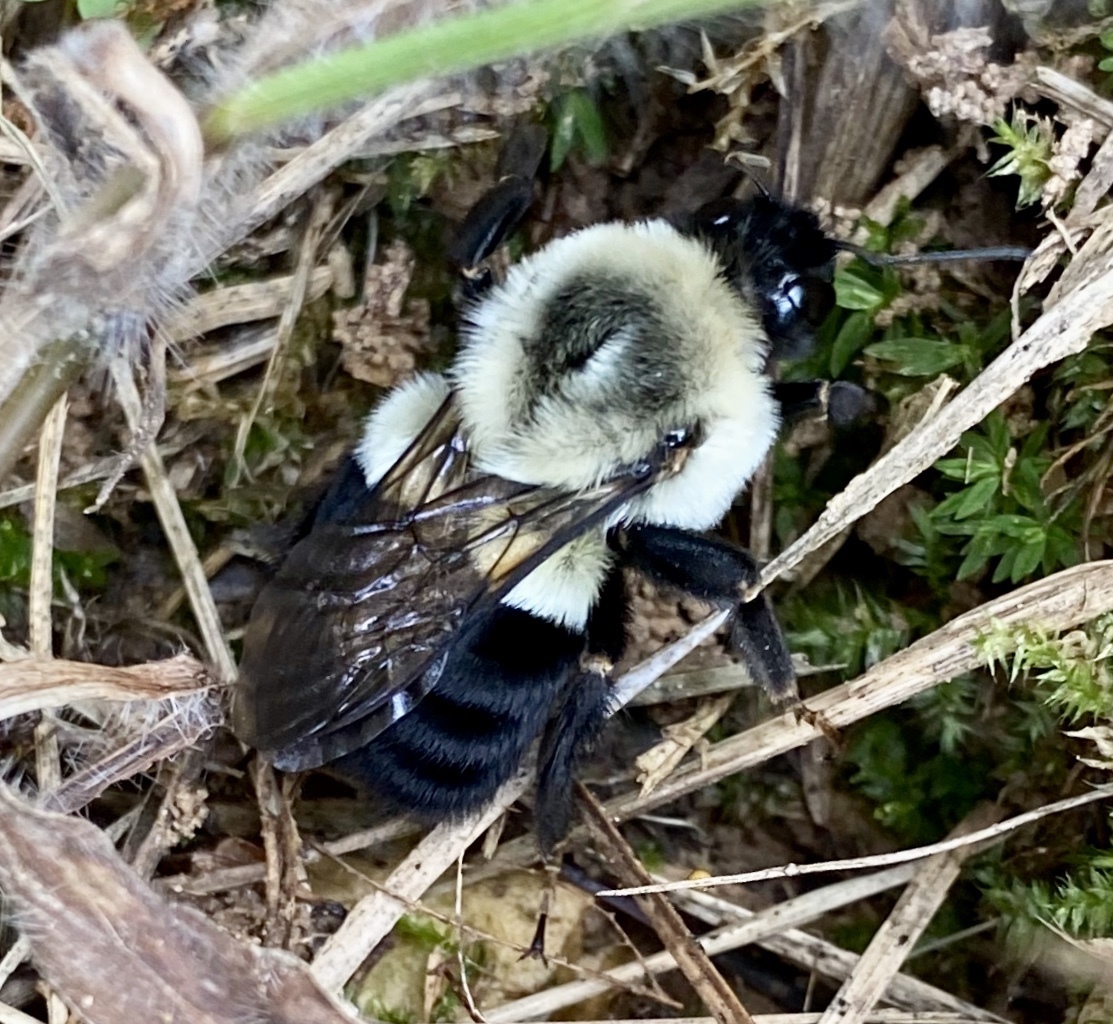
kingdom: Animalia
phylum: Arthropoda
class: Insecta
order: Hymenoptera
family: Apidae
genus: Bombus
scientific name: Bombus impatiens
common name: Common eastern bumble bee
